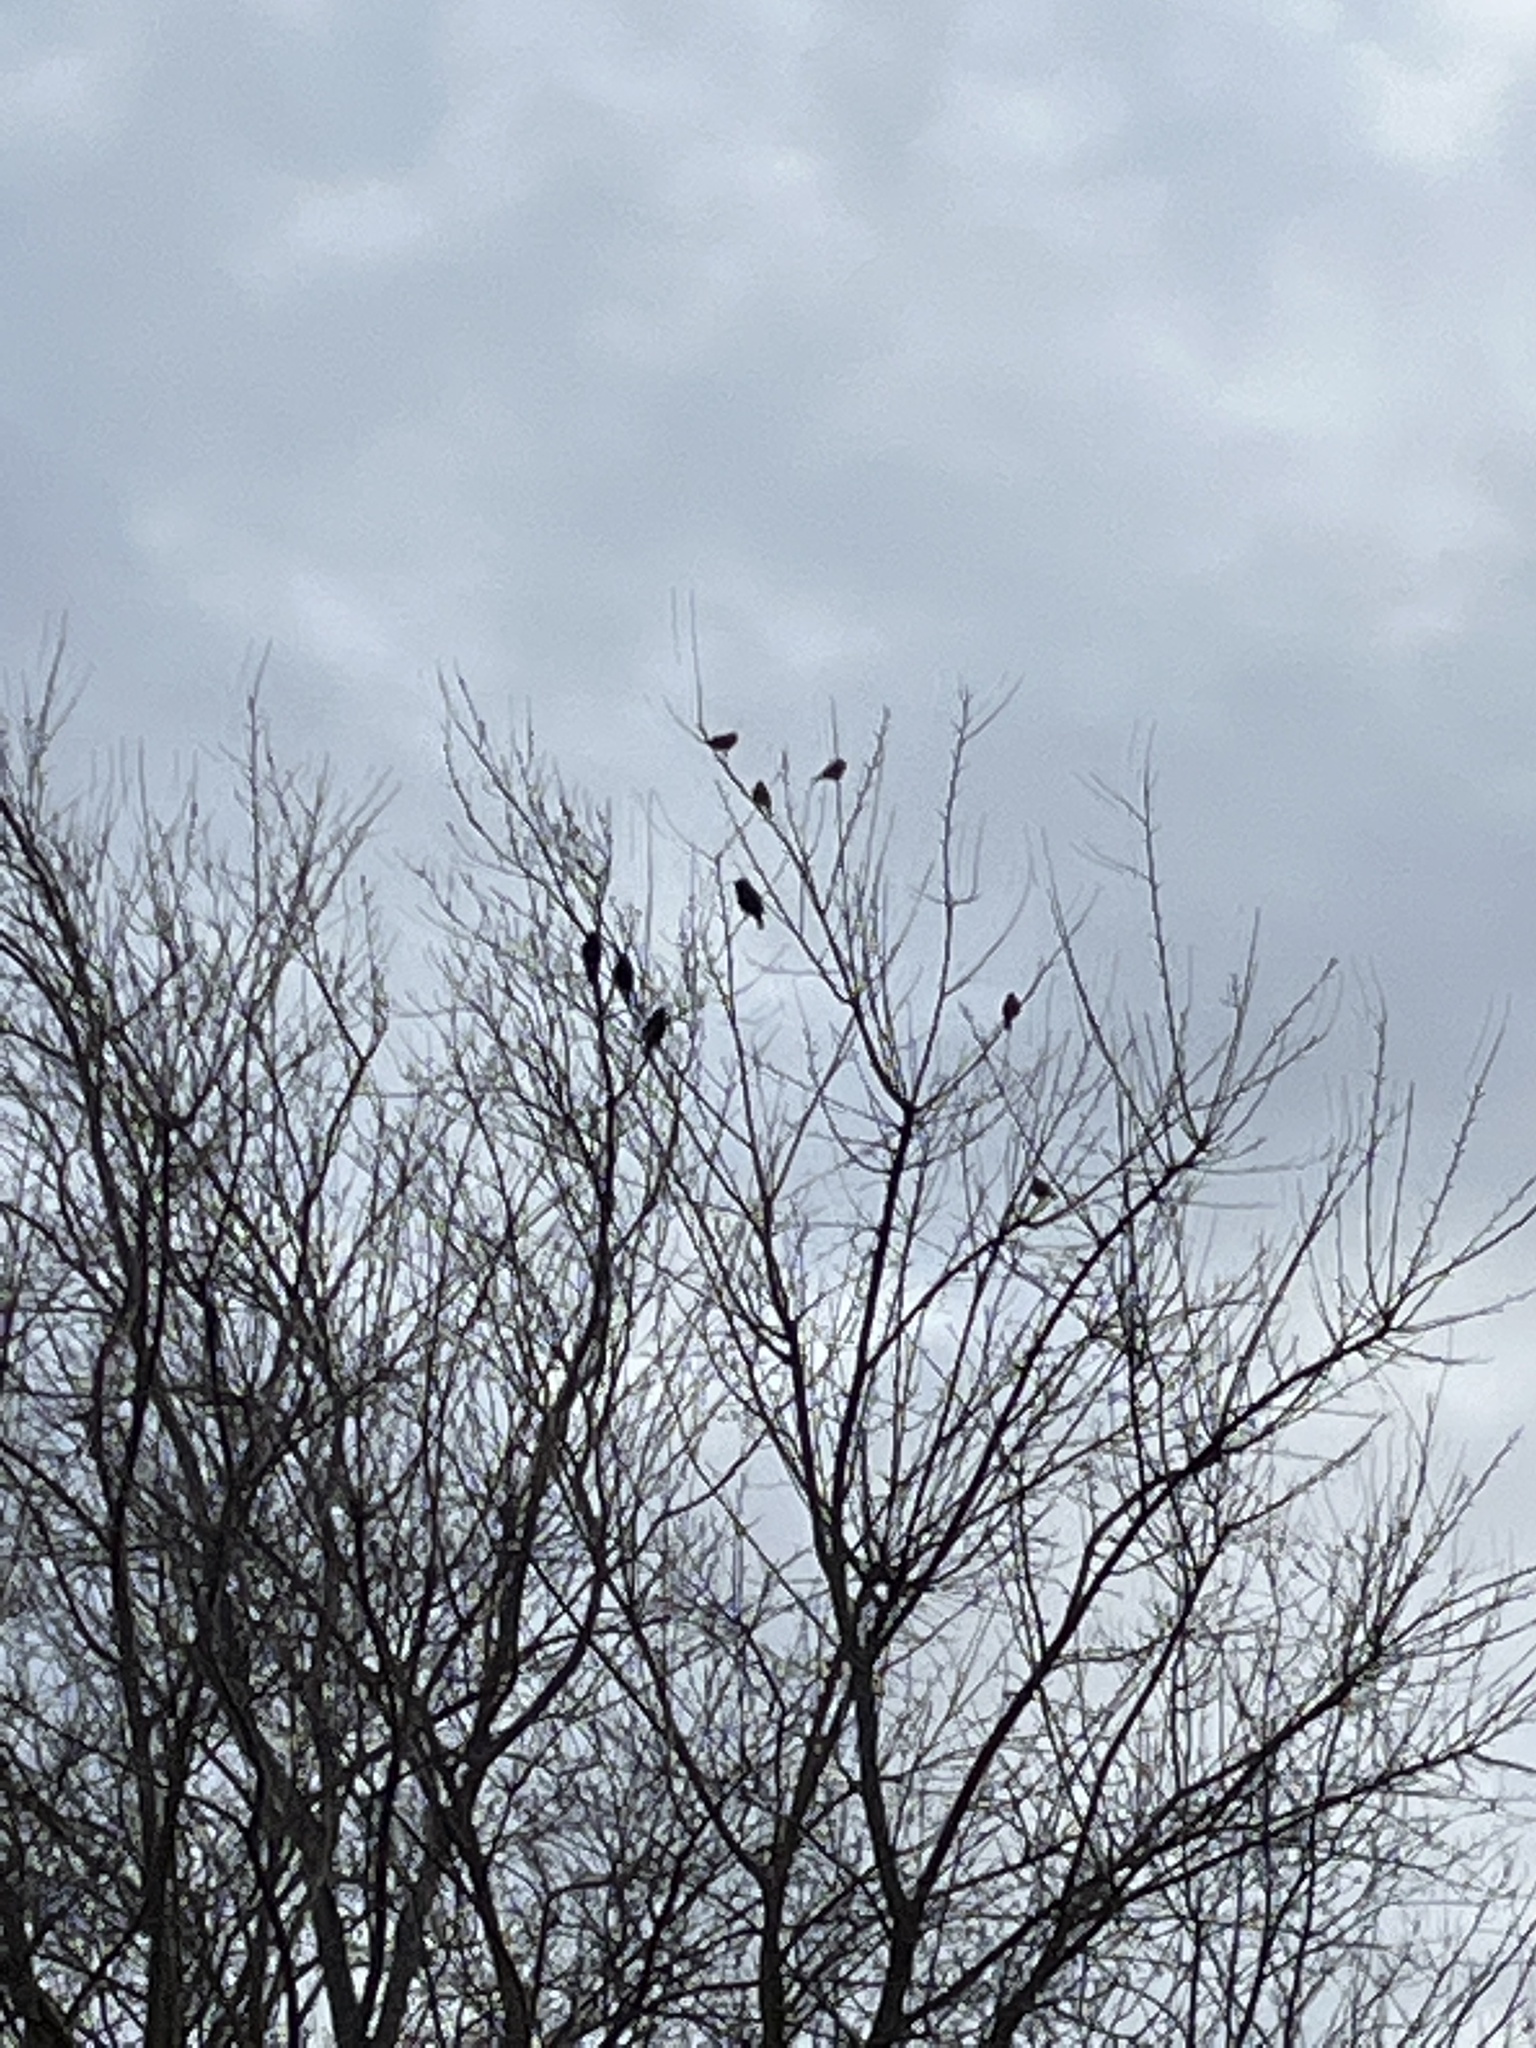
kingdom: Animalia
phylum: Chordata
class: Aves
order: Passeriformes
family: Passeridae
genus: Passer
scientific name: Passer domesticus
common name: House sparrow
